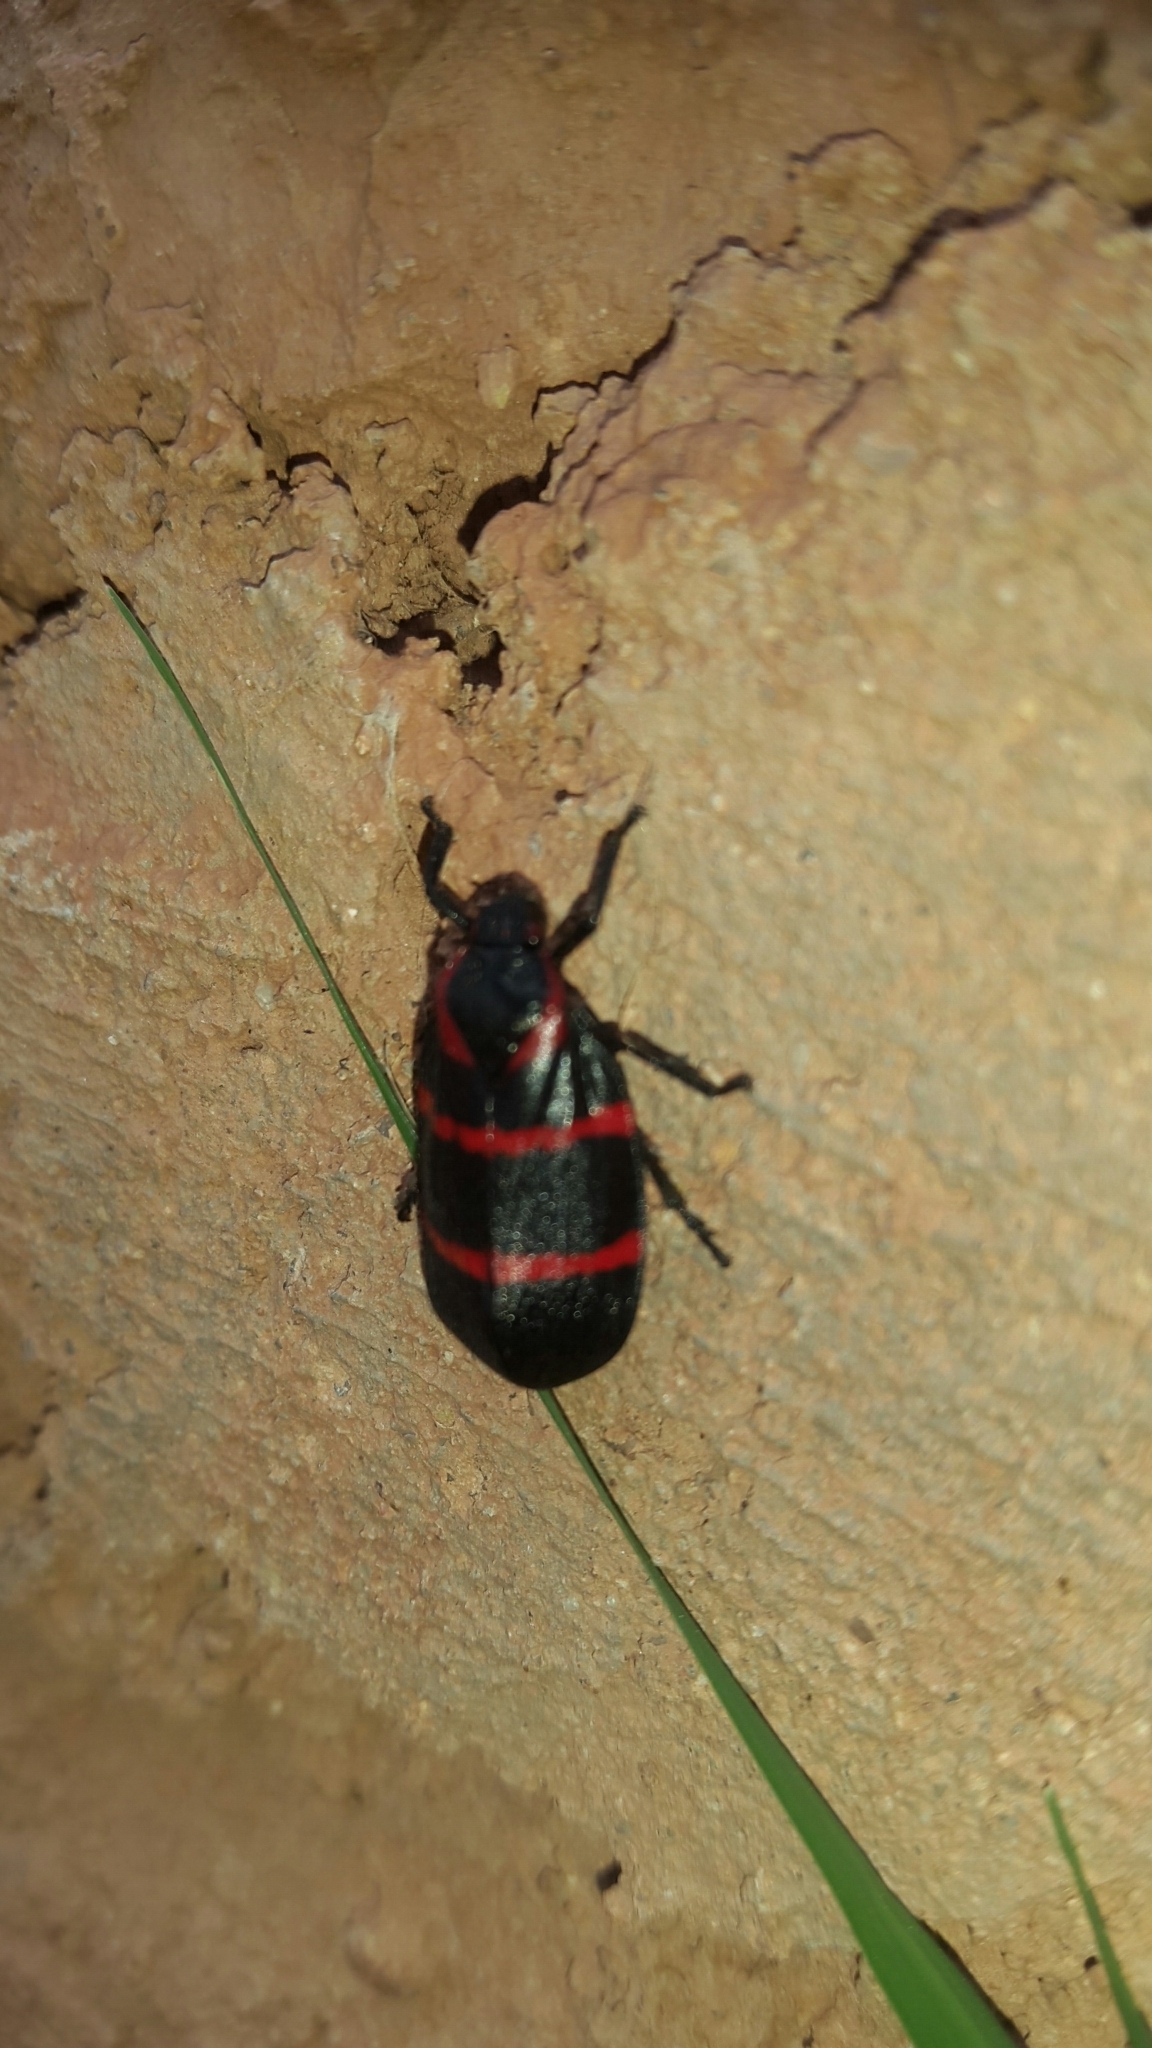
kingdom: Animalia
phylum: Arthropoda
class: Insecta
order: Hemiptera
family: Cercopidae
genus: Huaina
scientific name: Huaina inca
